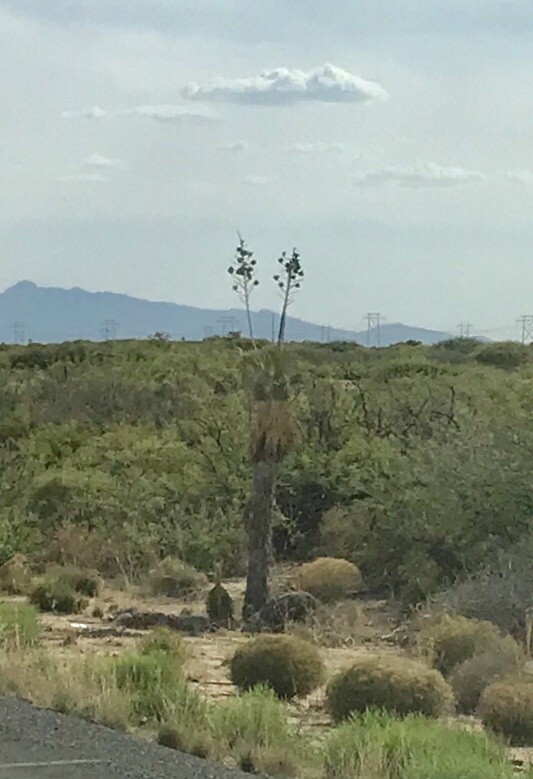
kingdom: Plantae
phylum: Tracheophyta
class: Liliopsida
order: Asparagales
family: Asparagaceae
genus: Yucca
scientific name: Yucca elata
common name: Palmella
